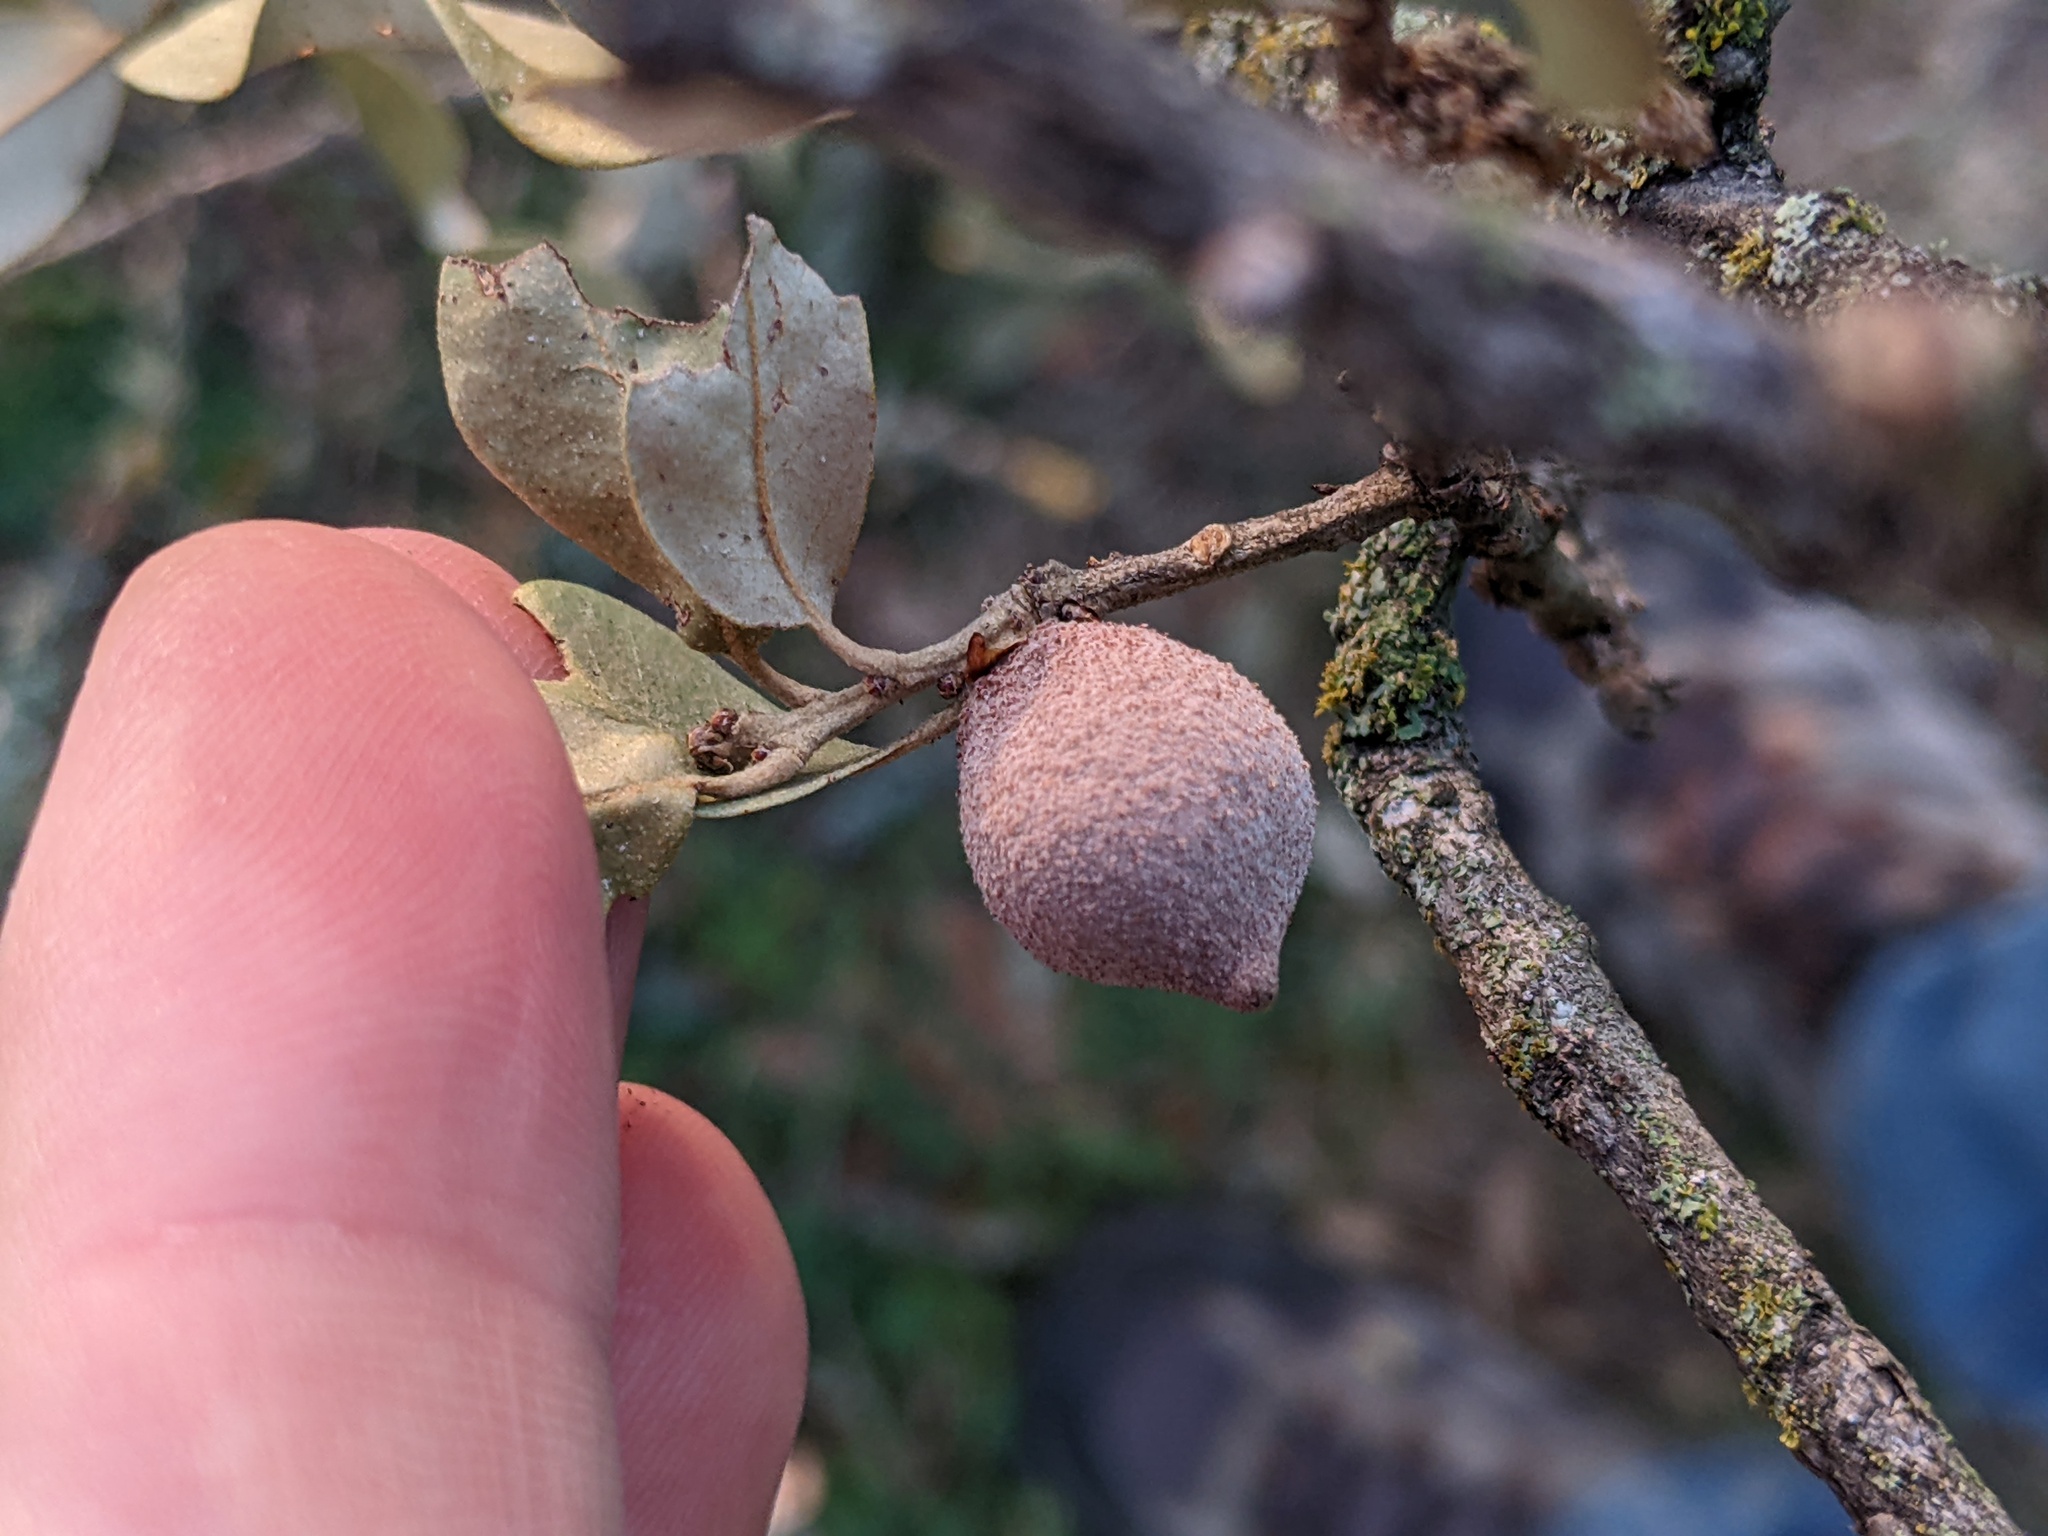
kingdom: Animalia
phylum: Arthropoda
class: Insecta
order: Hymenoptera
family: Cynipidae
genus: Disholcaspis
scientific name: Disholcaspis
